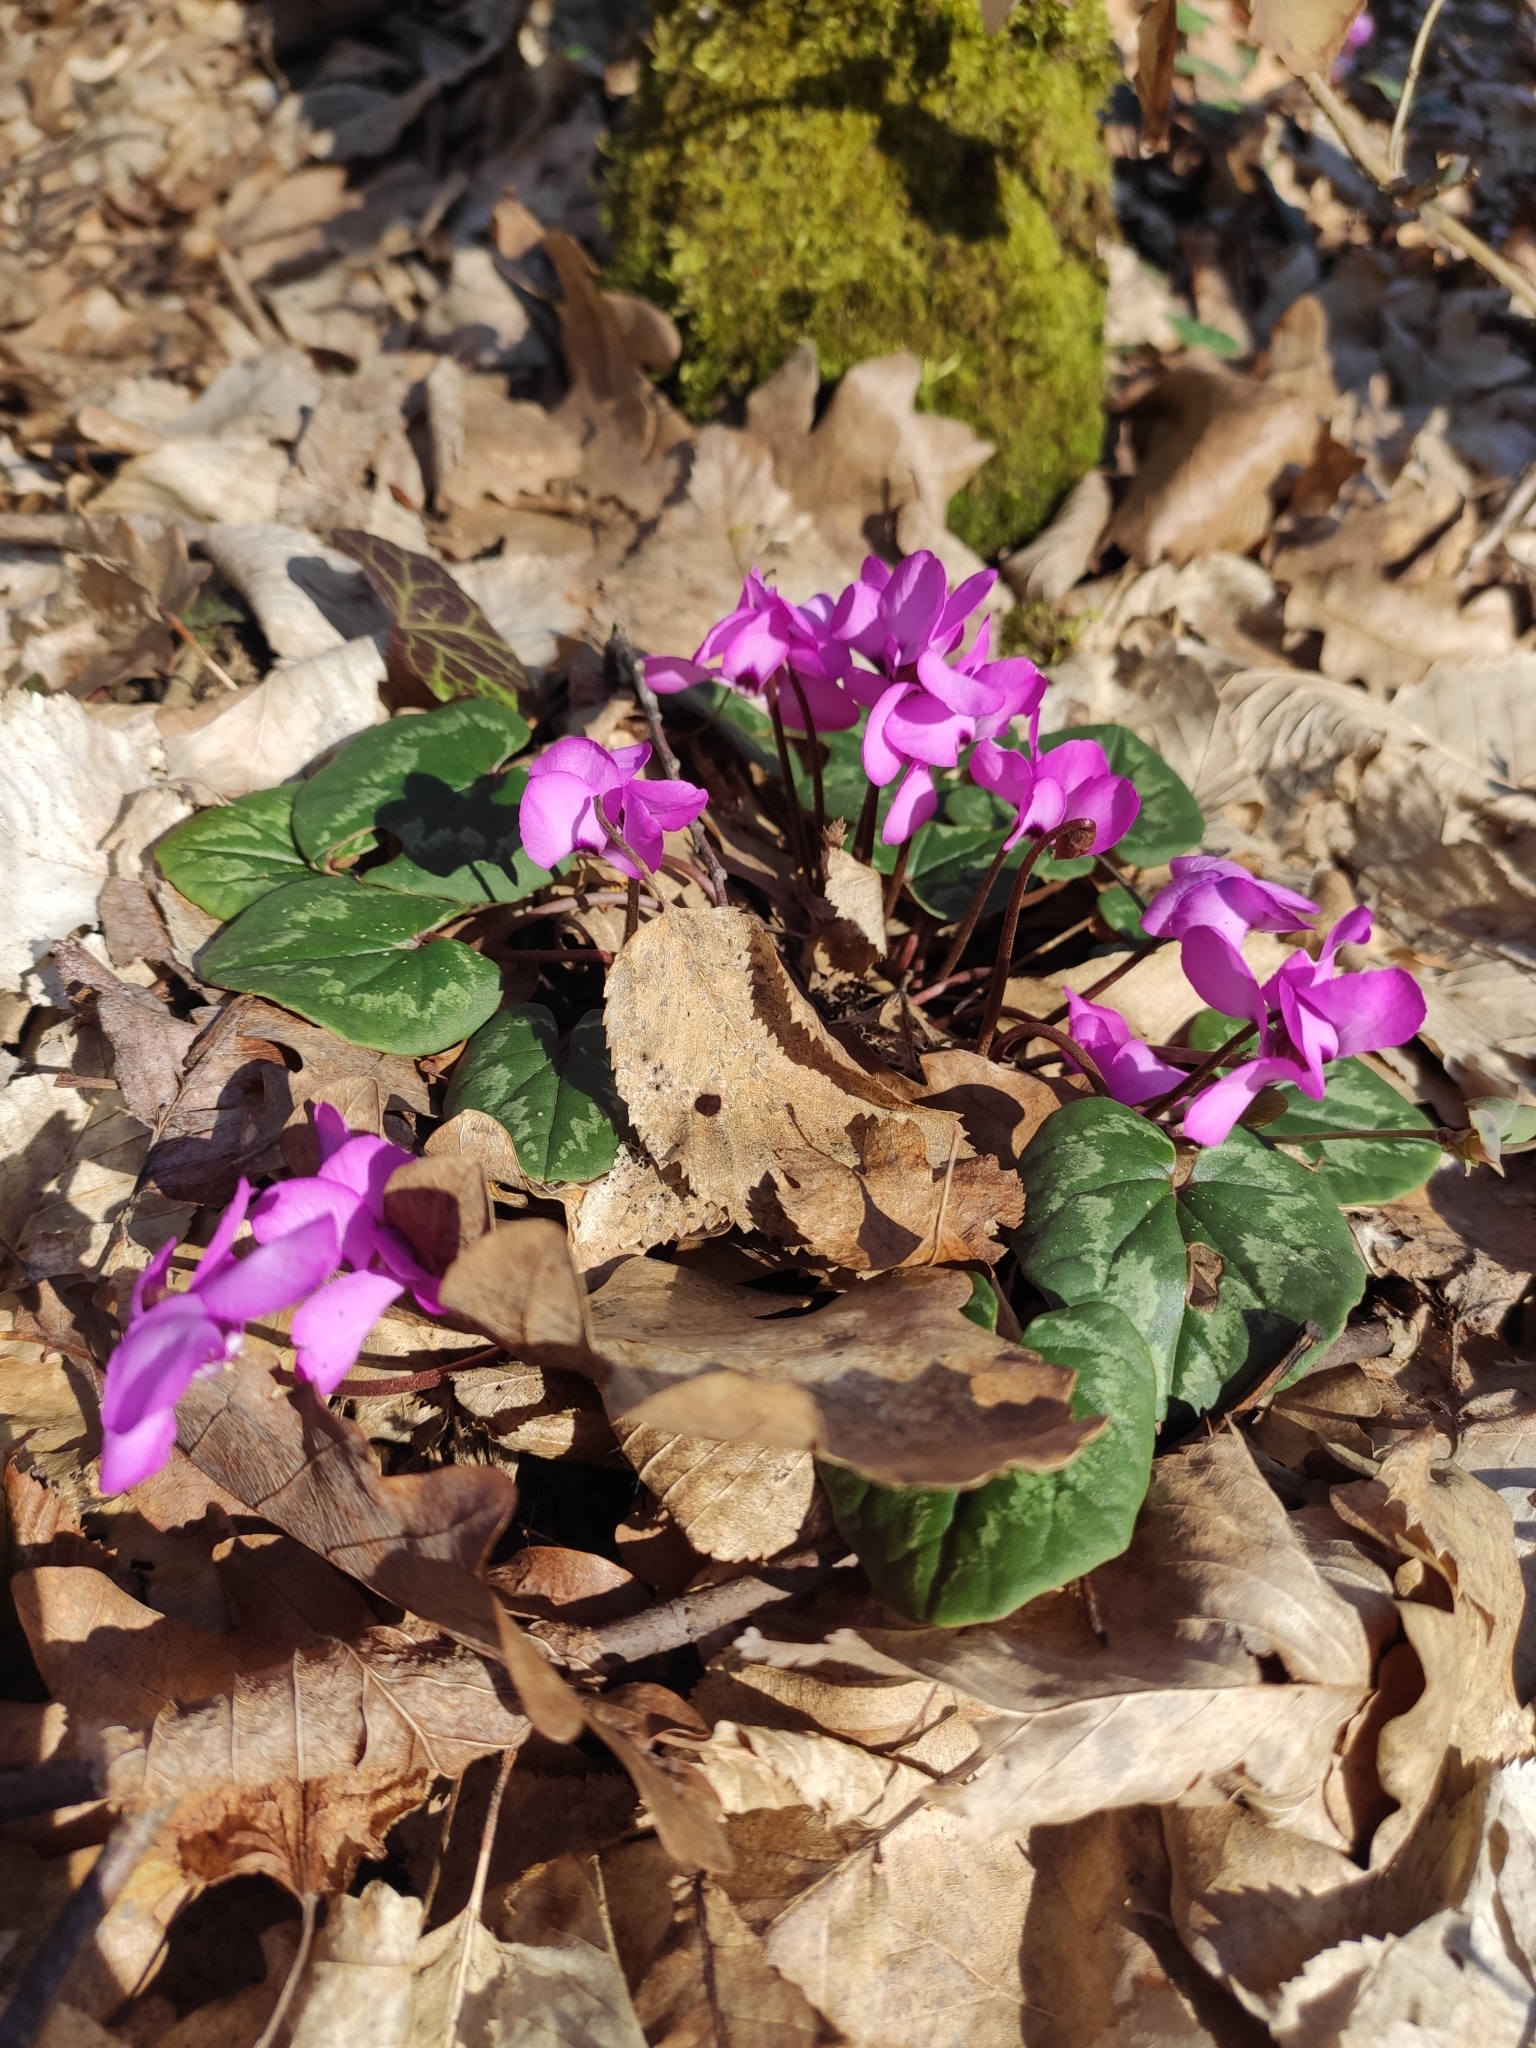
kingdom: Plantae
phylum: Tracheophyta
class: Magnoliopsida
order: Ericales
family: Primulaceae
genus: Cyclamen
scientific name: Cyclamen coum
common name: Eastern sowbread
